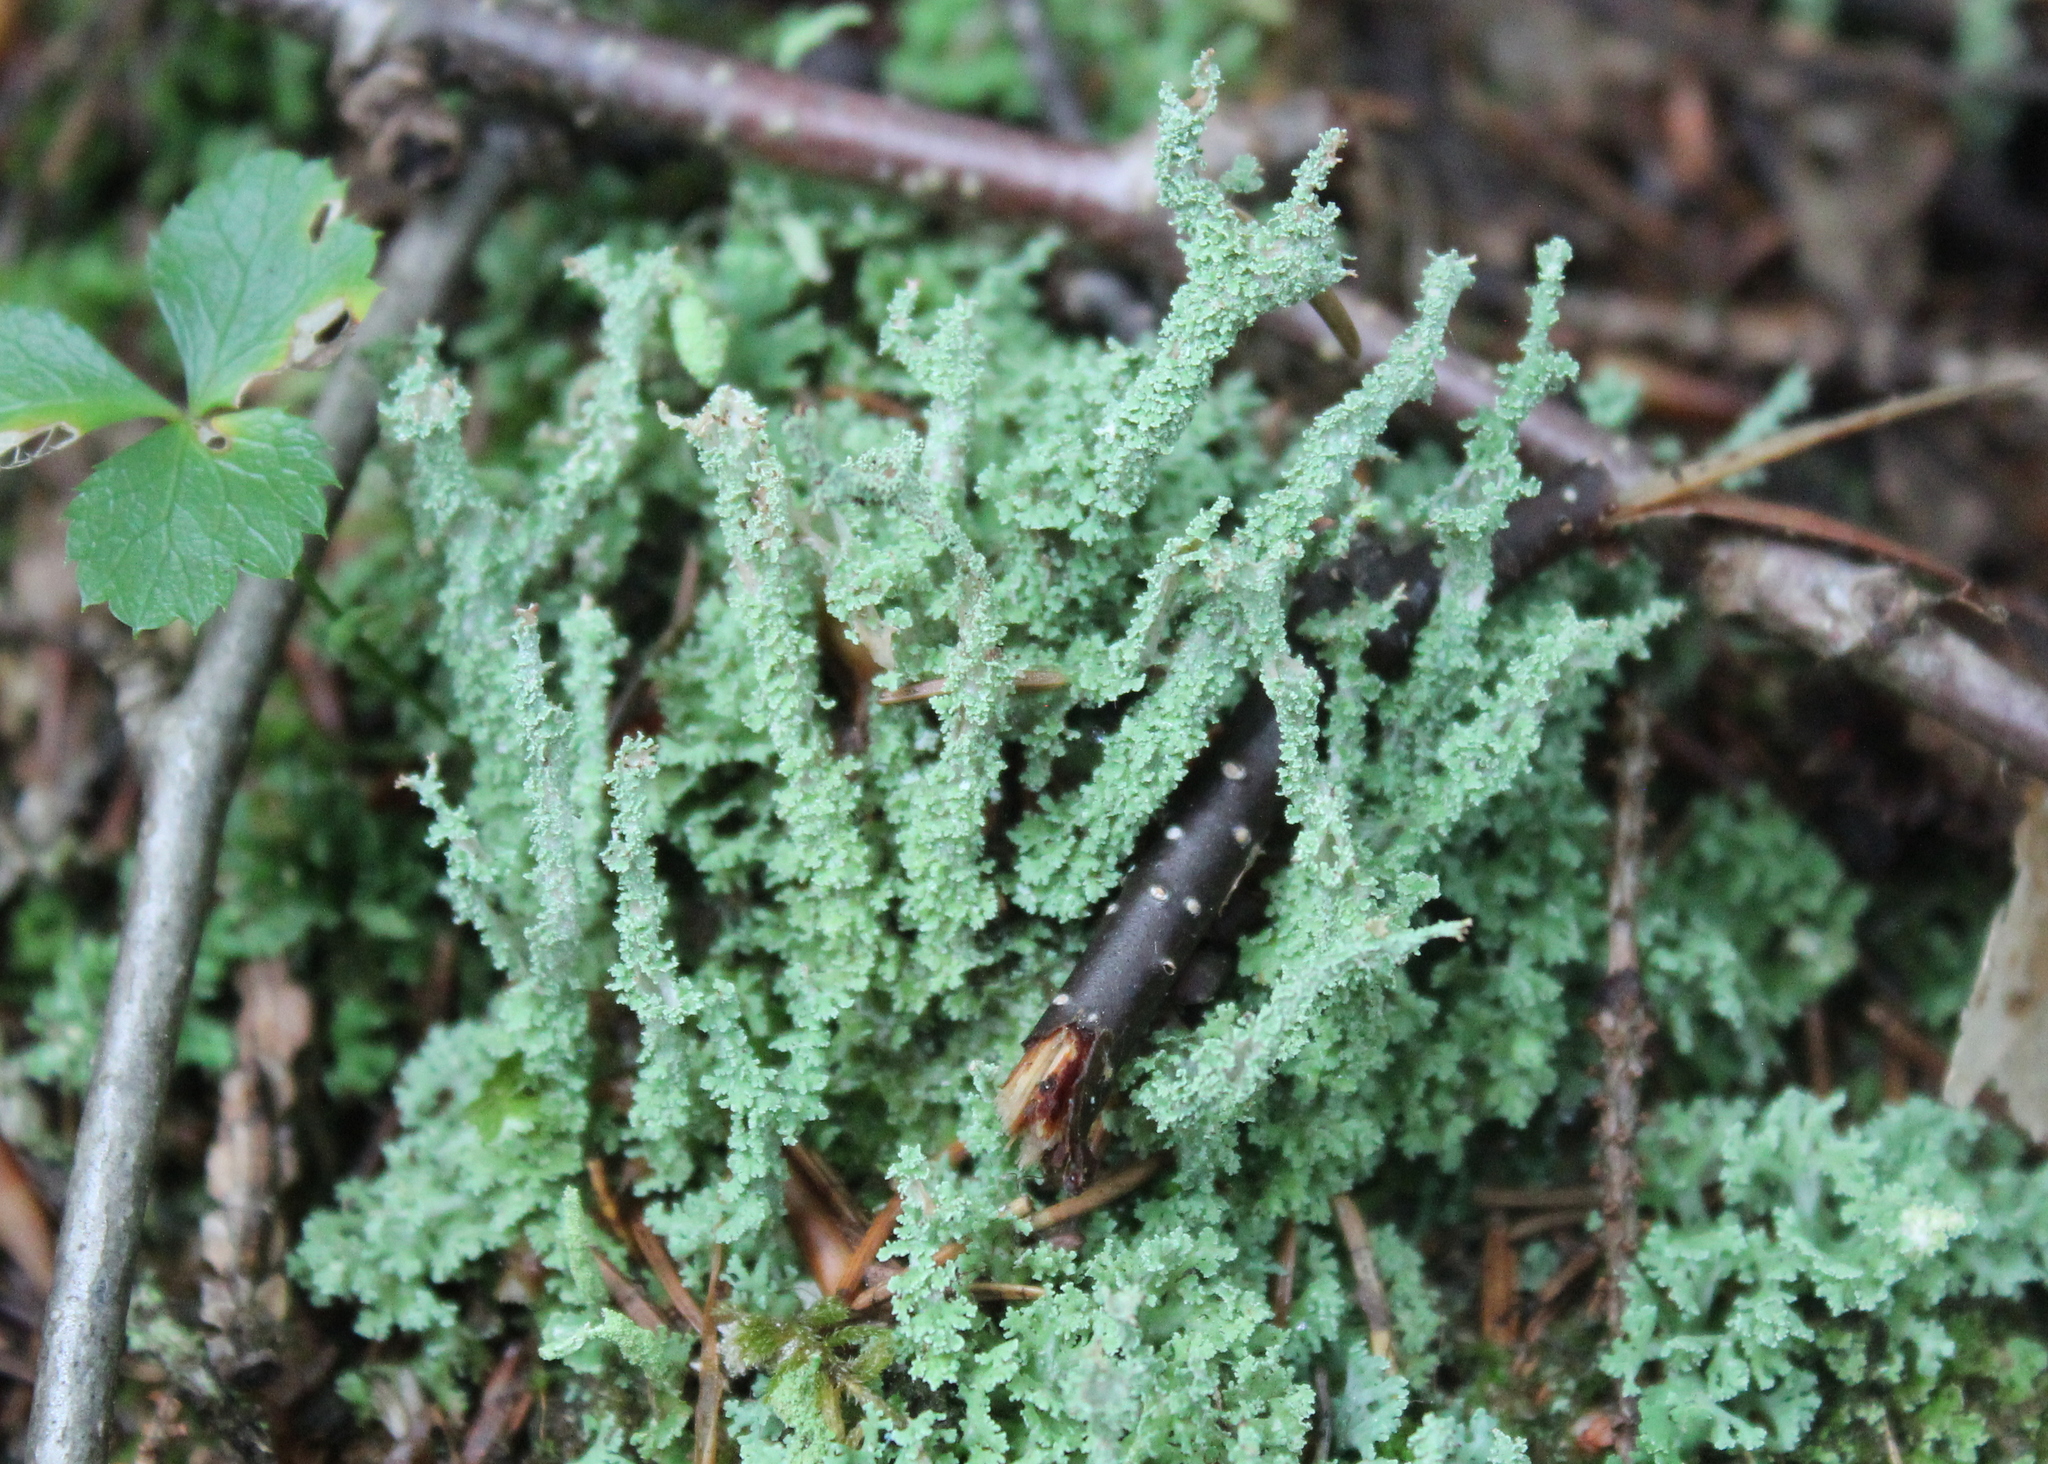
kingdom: Fungi
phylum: Ascomycota
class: Lecanoromycetes
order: Lecanorales
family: Cladoniaceae
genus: Cladonia
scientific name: Cladonia squamosa
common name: Dragon horn
